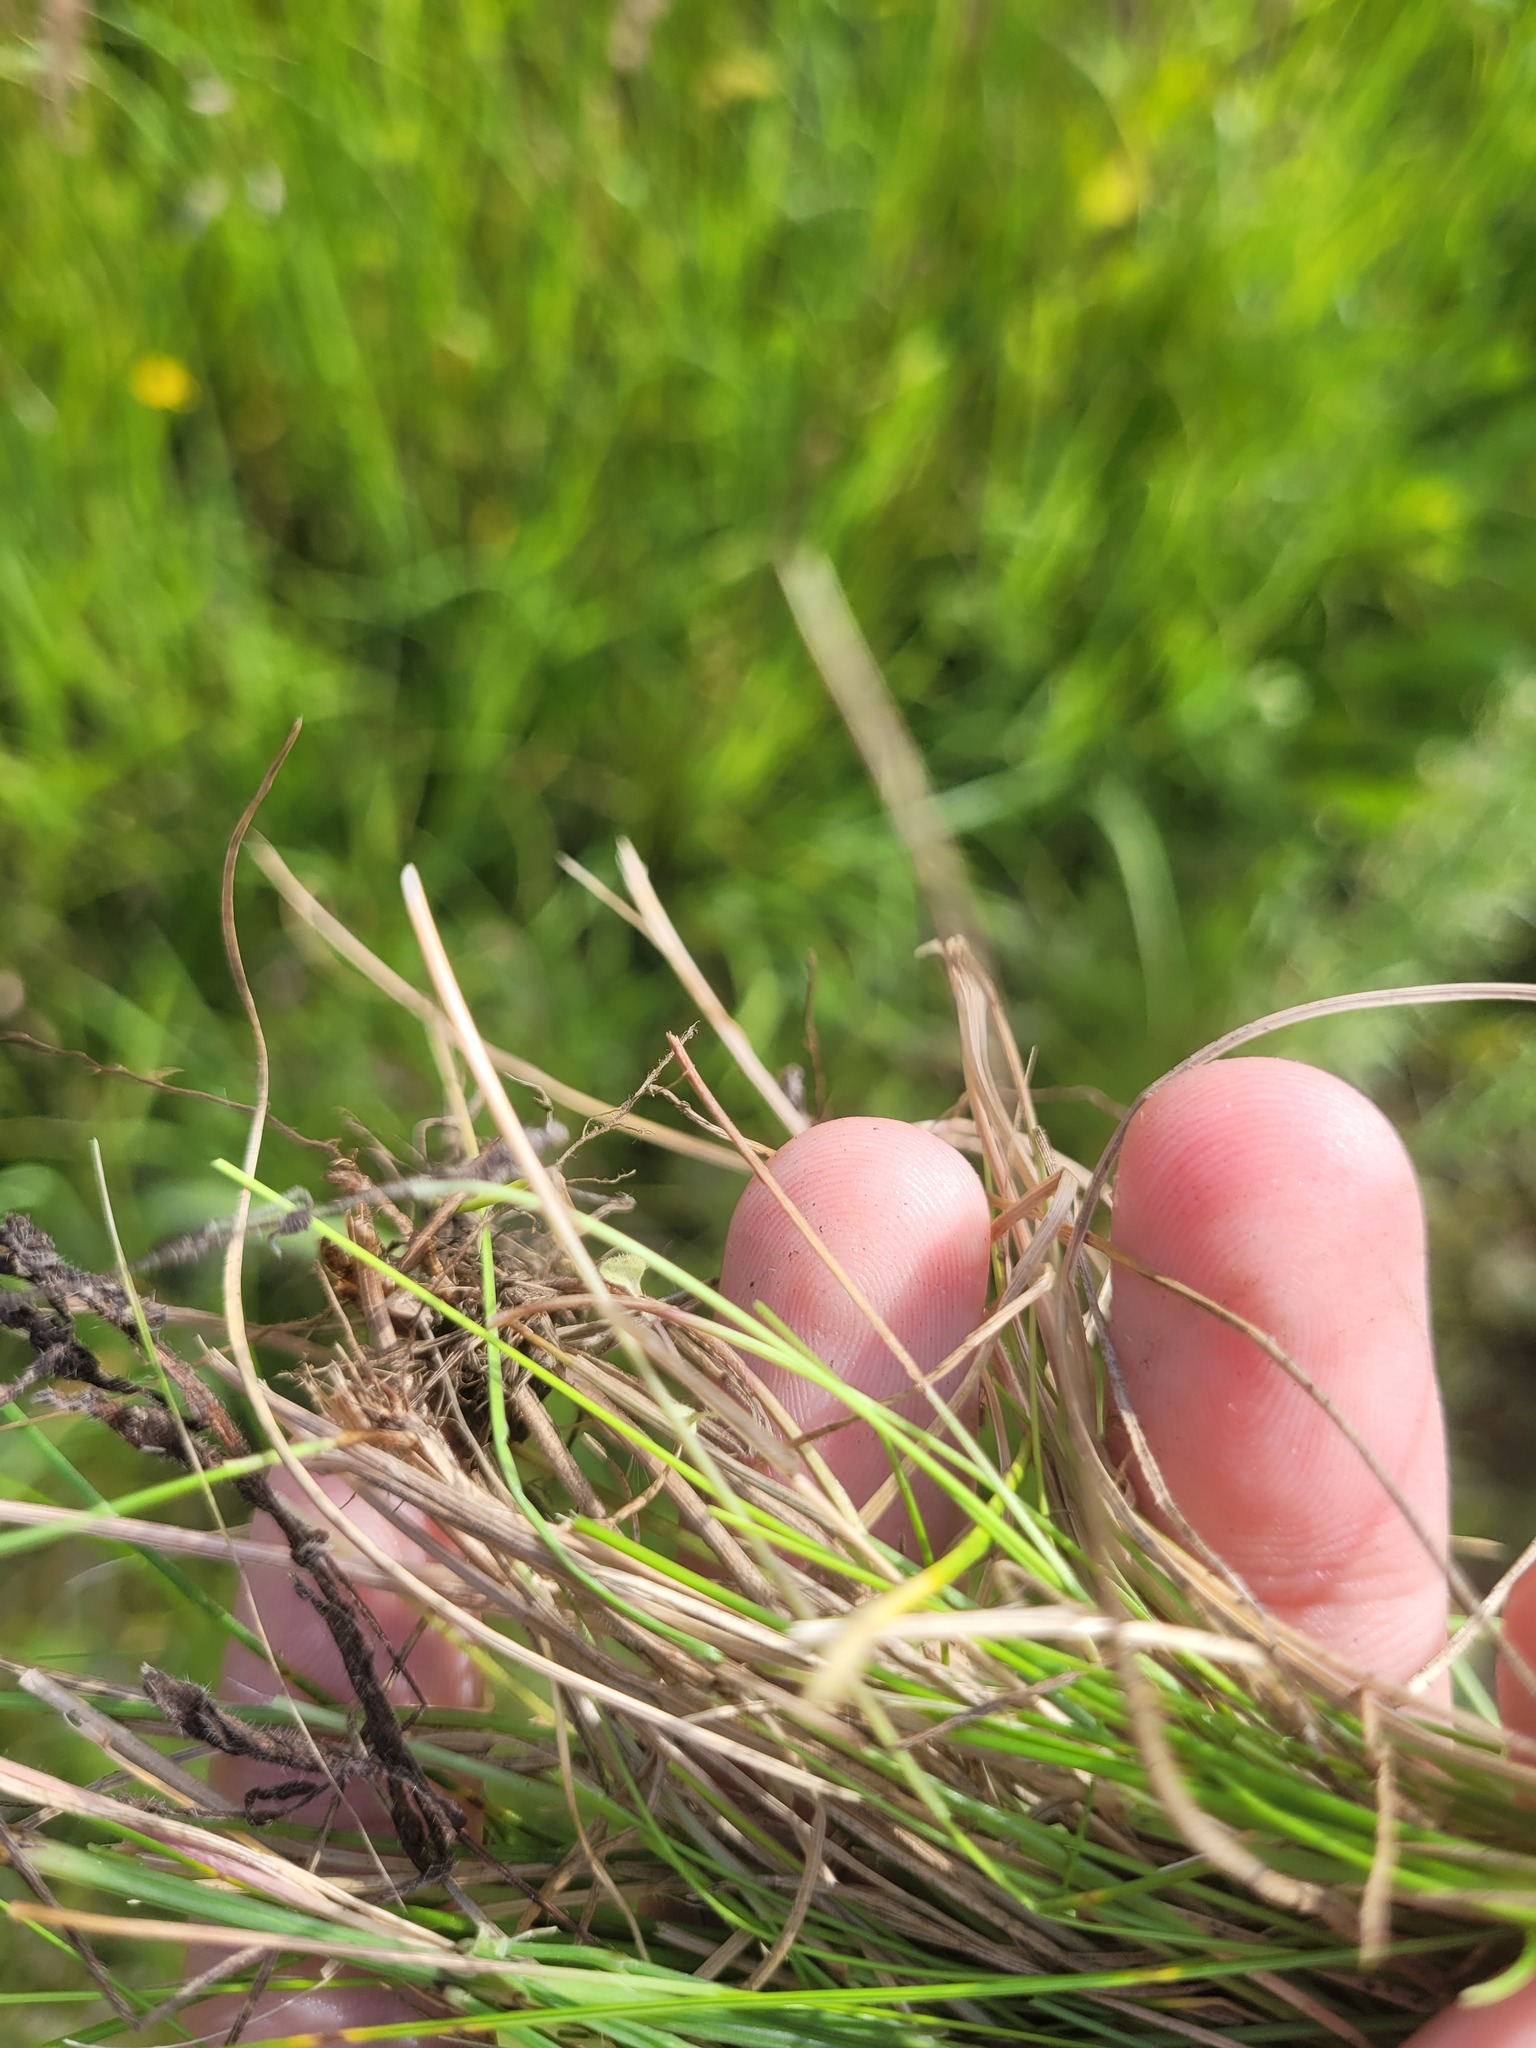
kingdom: Plantae
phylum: Tracheophyta
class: Liliopsida
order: Poales
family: Poaceae
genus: Festuca
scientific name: Festuca rubra
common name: Red fescue
